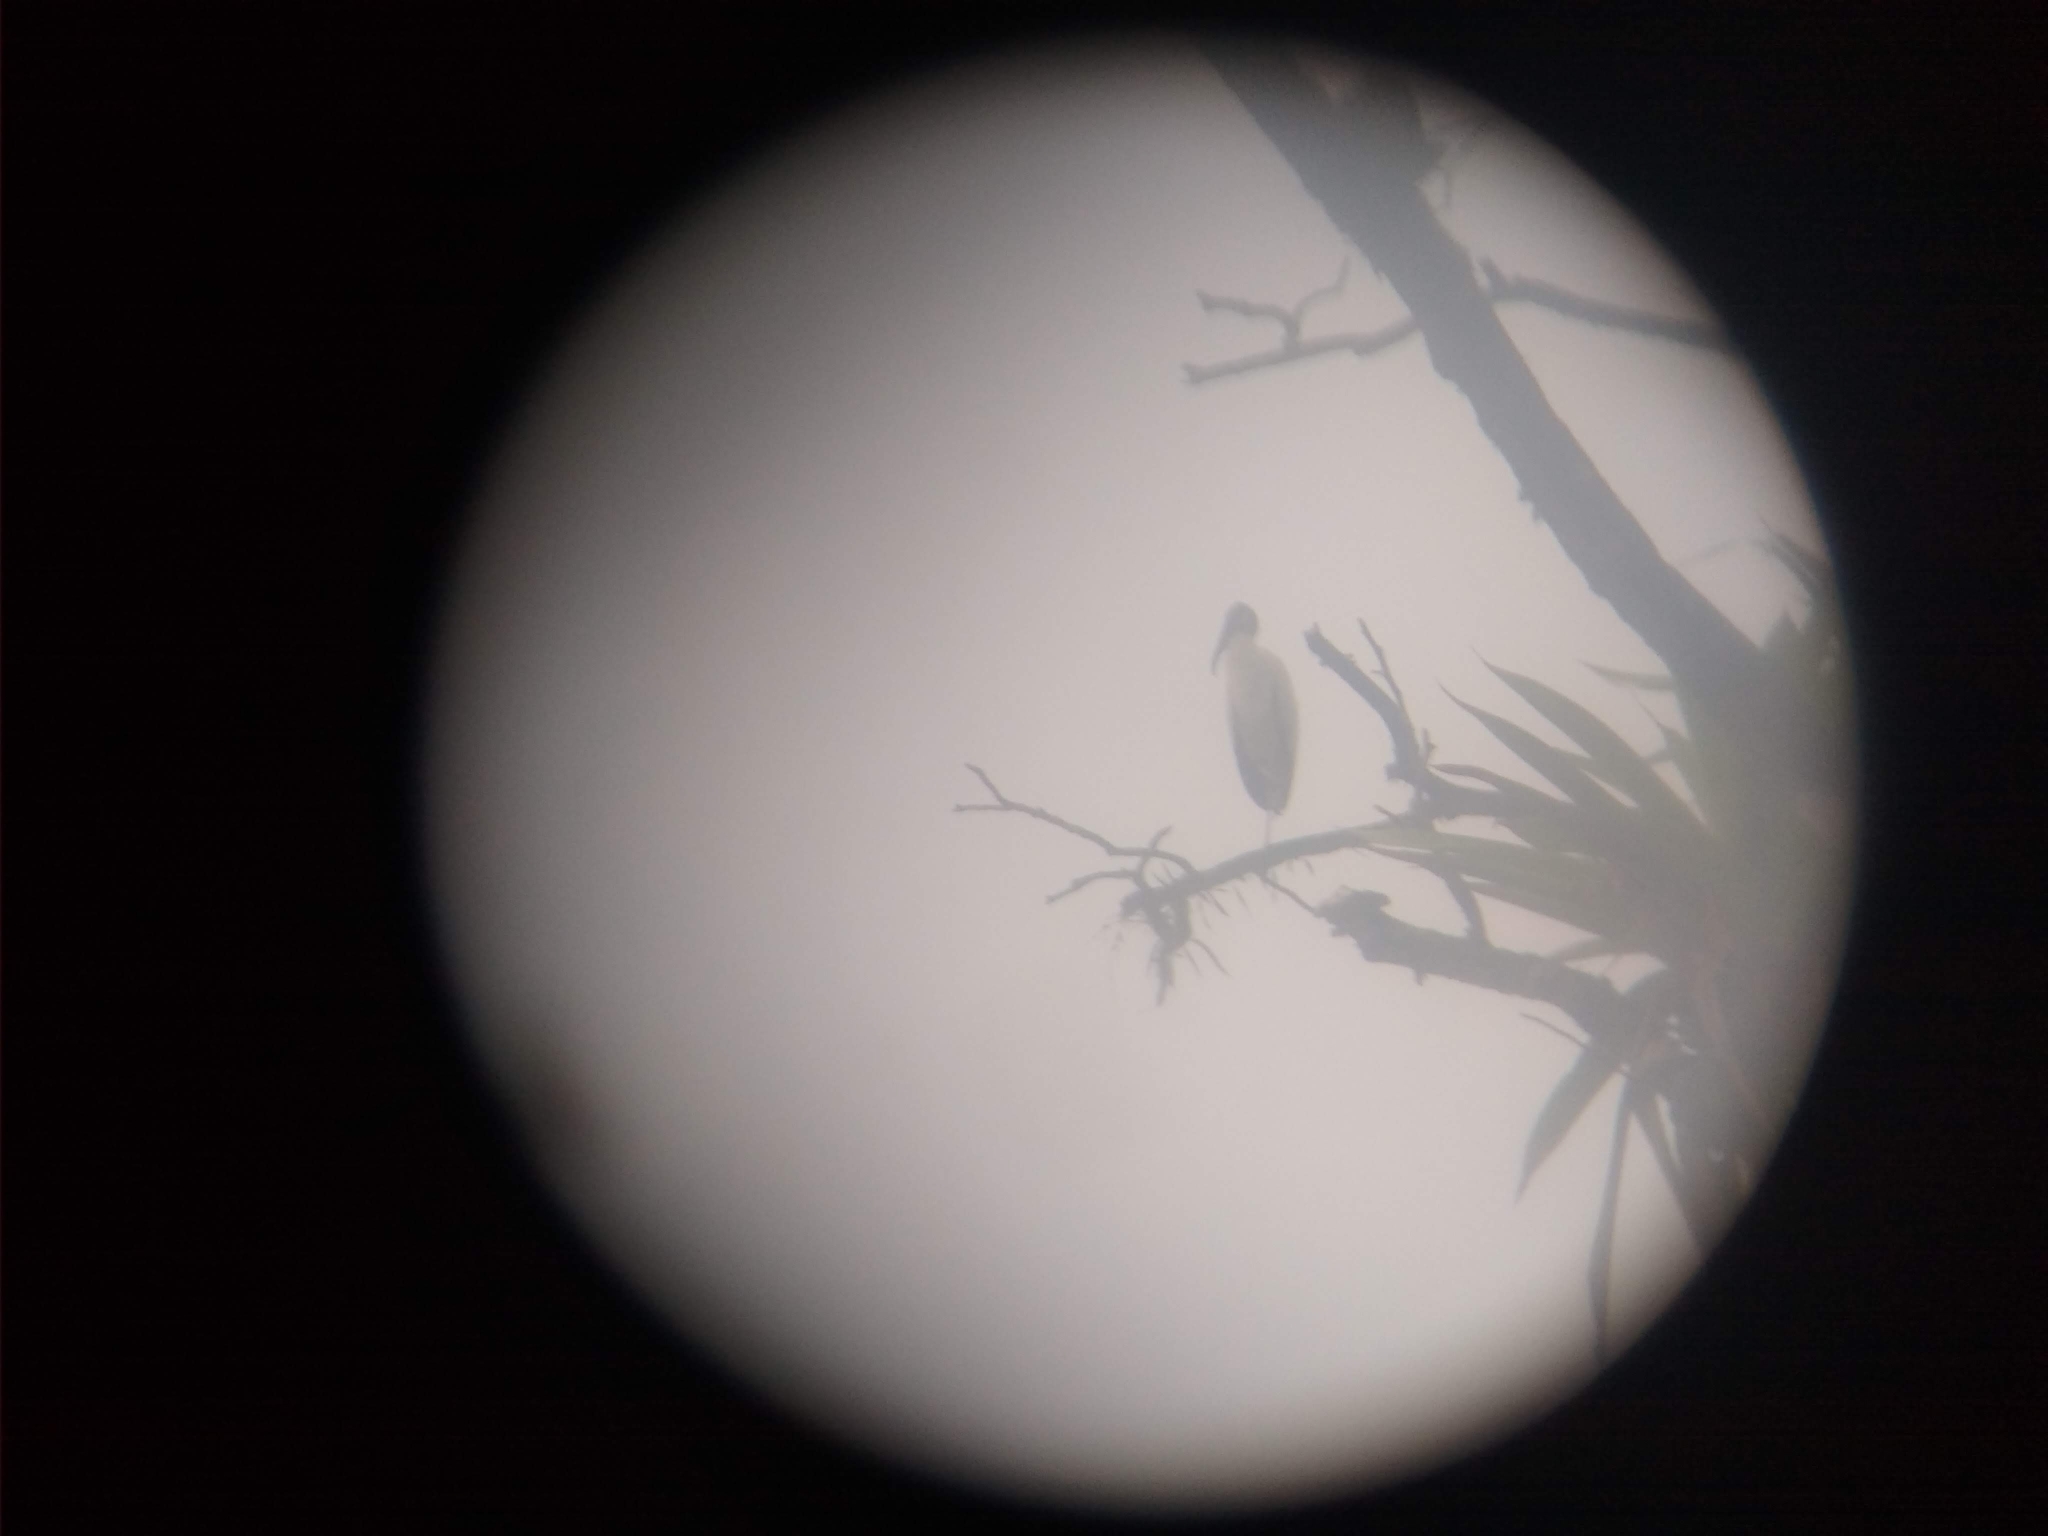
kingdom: Animalia
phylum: Chordata
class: Aves
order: Ciconiiformes
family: Ciconiidae
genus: Mycteria
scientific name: Mycteria americana
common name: Wood stork
